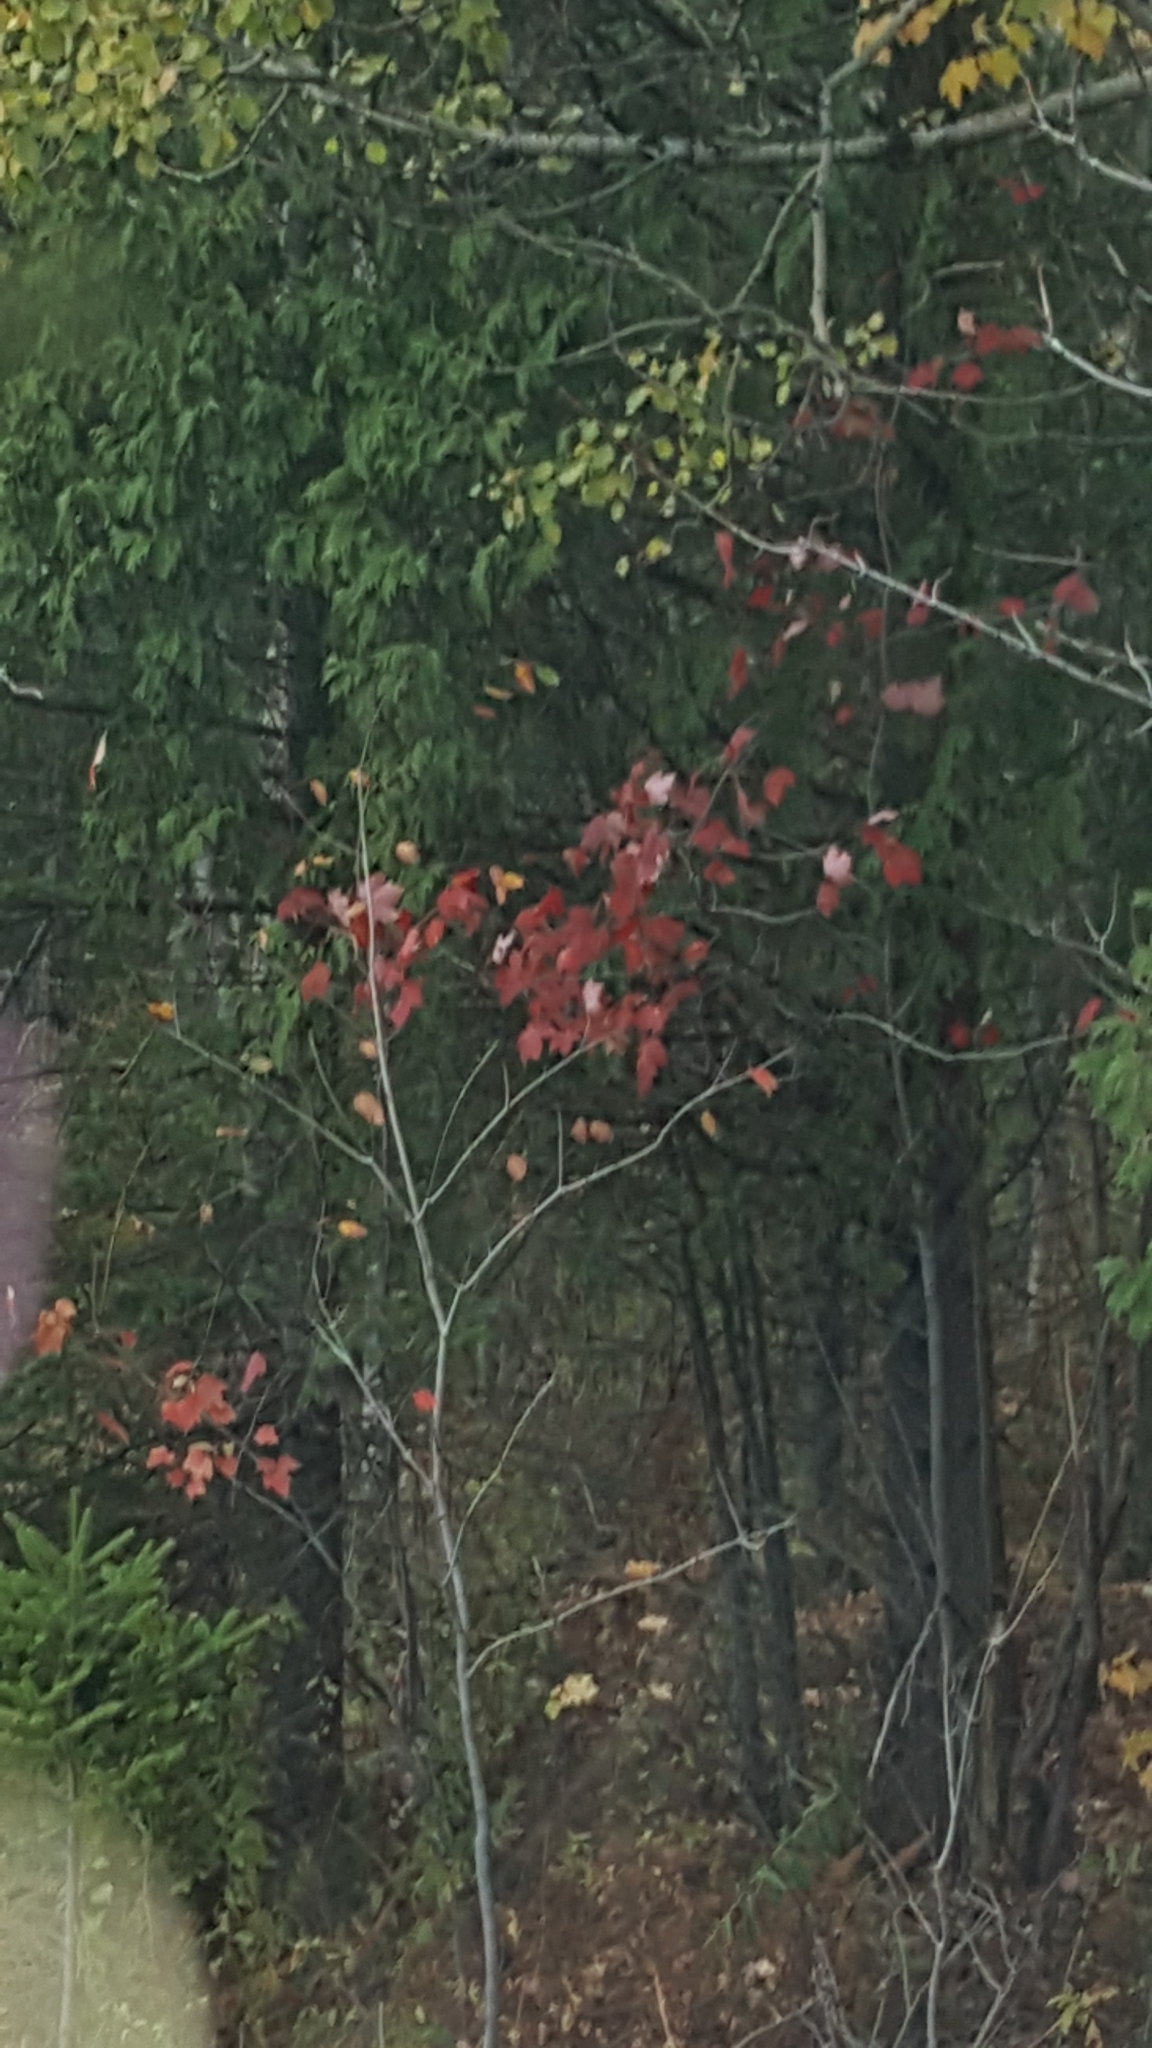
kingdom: Plantae
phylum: Tracheophyta
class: Magnoliopsida
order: Sapindales
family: Sapindaceae
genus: Acer
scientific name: Acer rubrum
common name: Red maple
